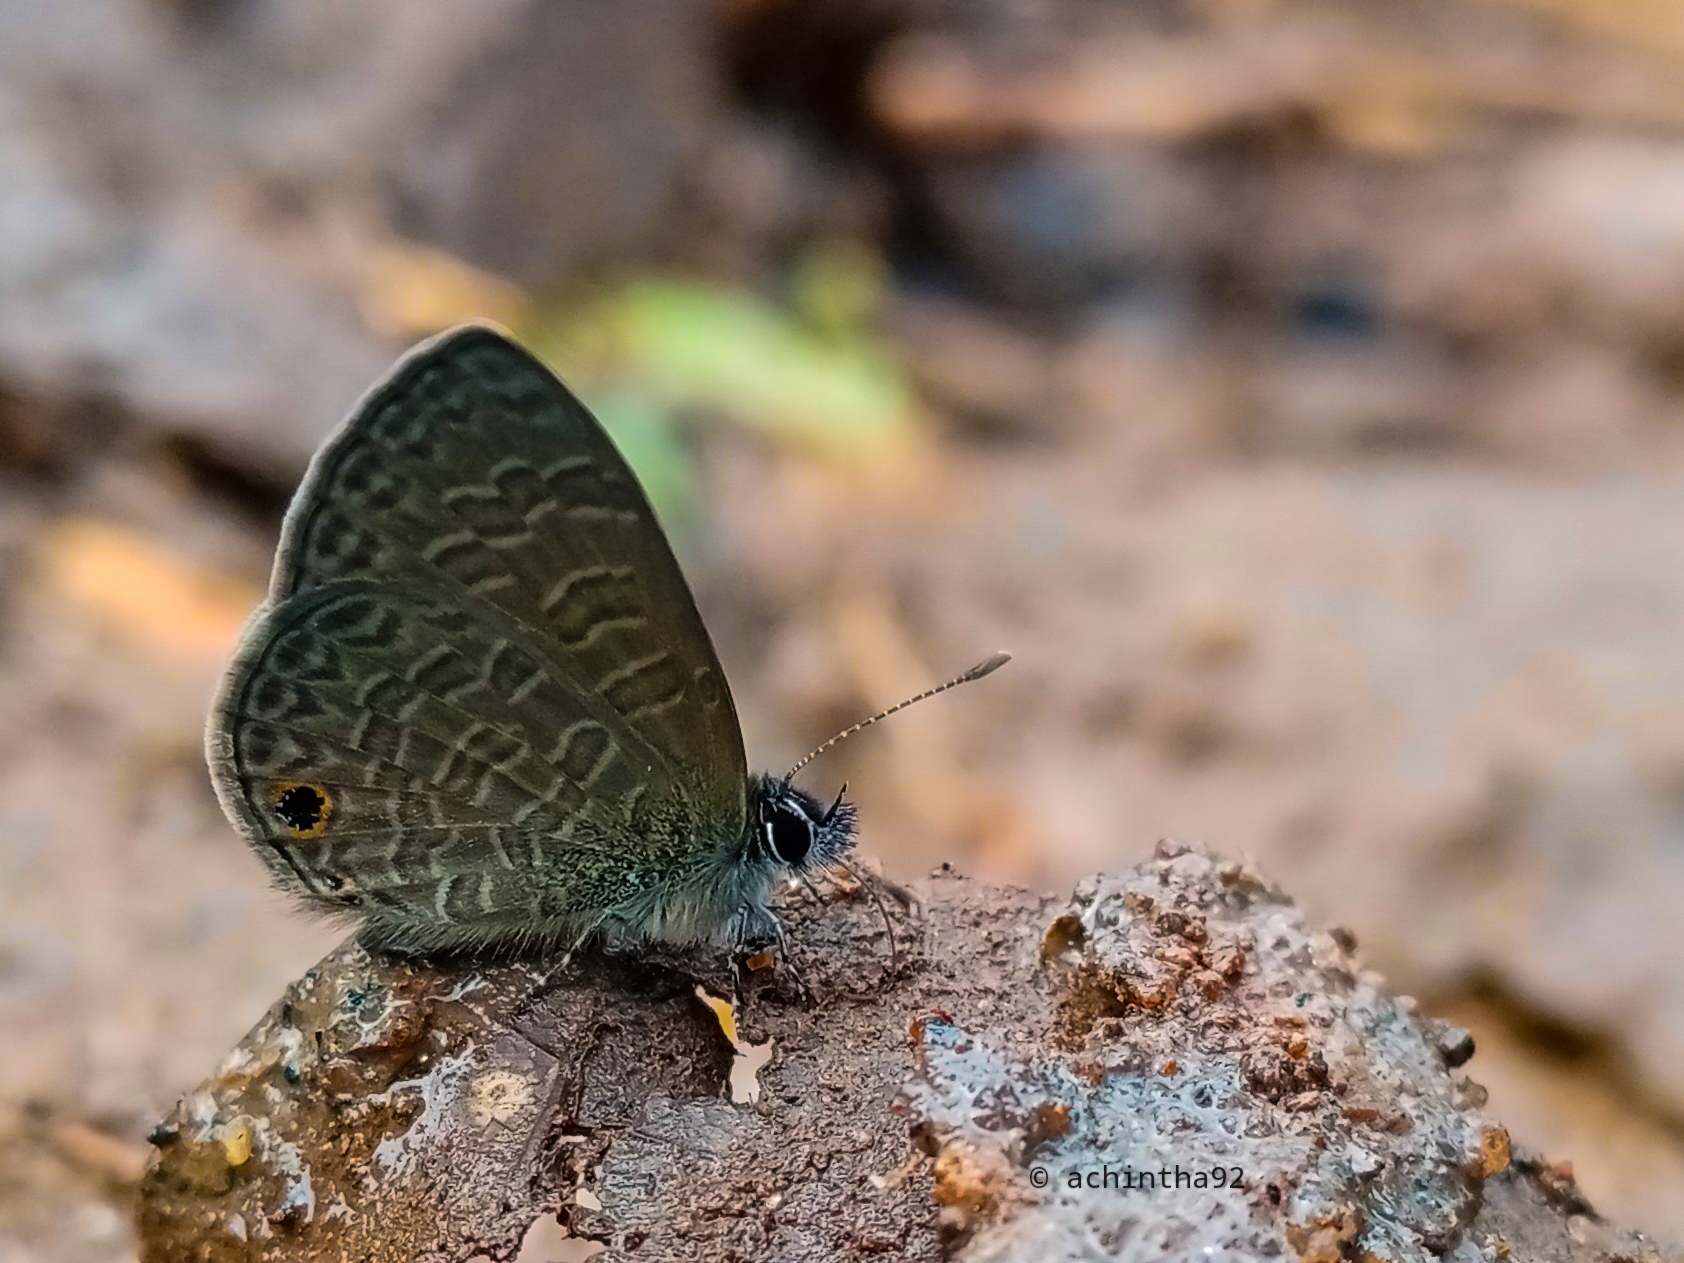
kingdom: Animalia
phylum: Arthropoda
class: Insecta
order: Lepidoptera
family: Lycaenidae
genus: Prosotas
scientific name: Prosotas dubiosa
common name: Tailless lineblue
